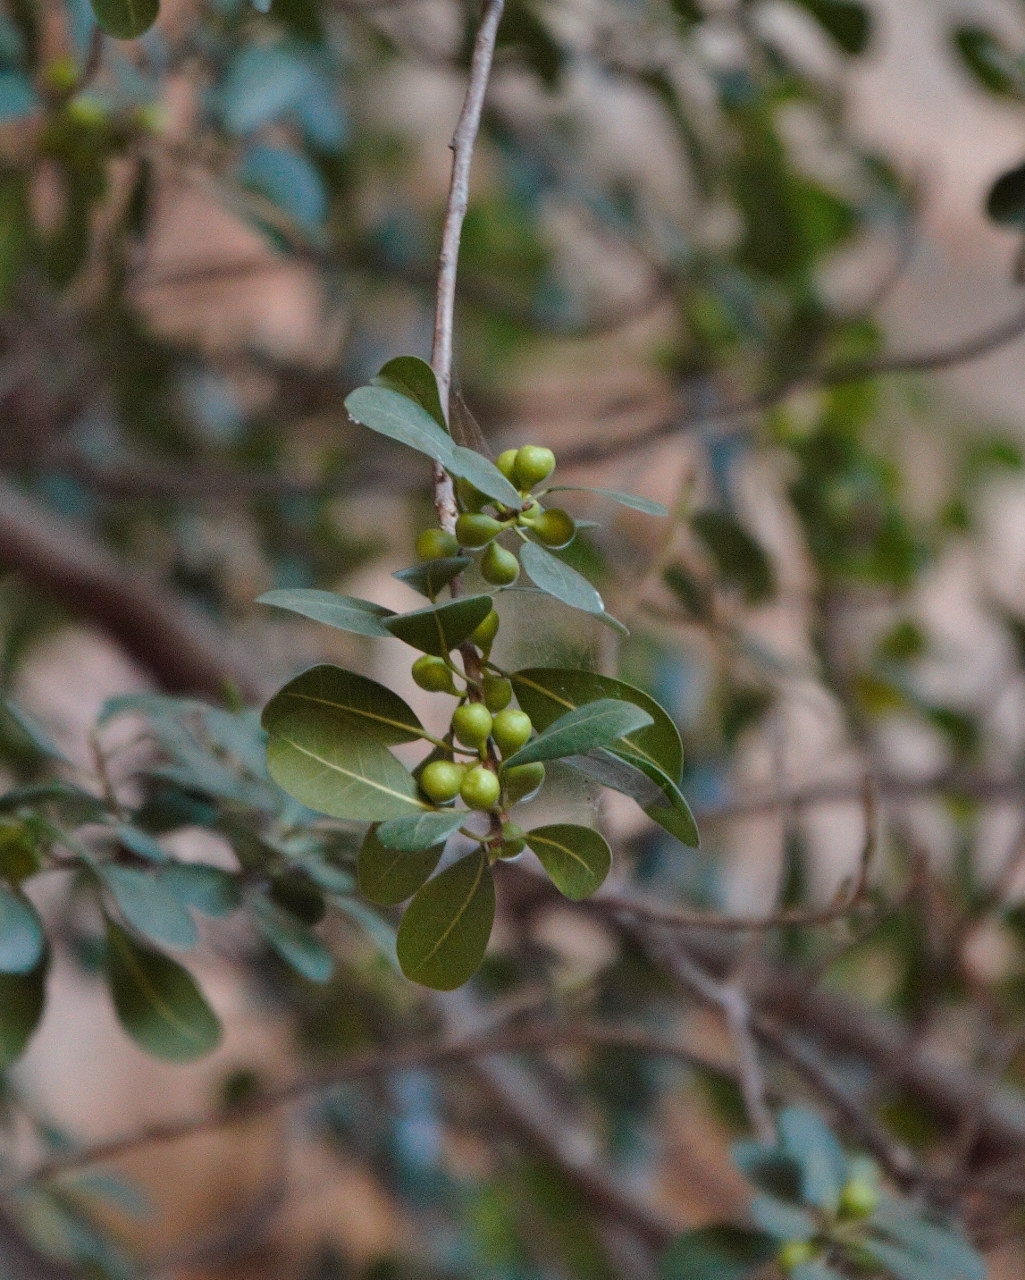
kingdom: Plantae
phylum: Tracheophyta
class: Magnoliopsida
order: Rosales
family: Moraceae
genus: Ficus
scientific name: Ficus natalensis
